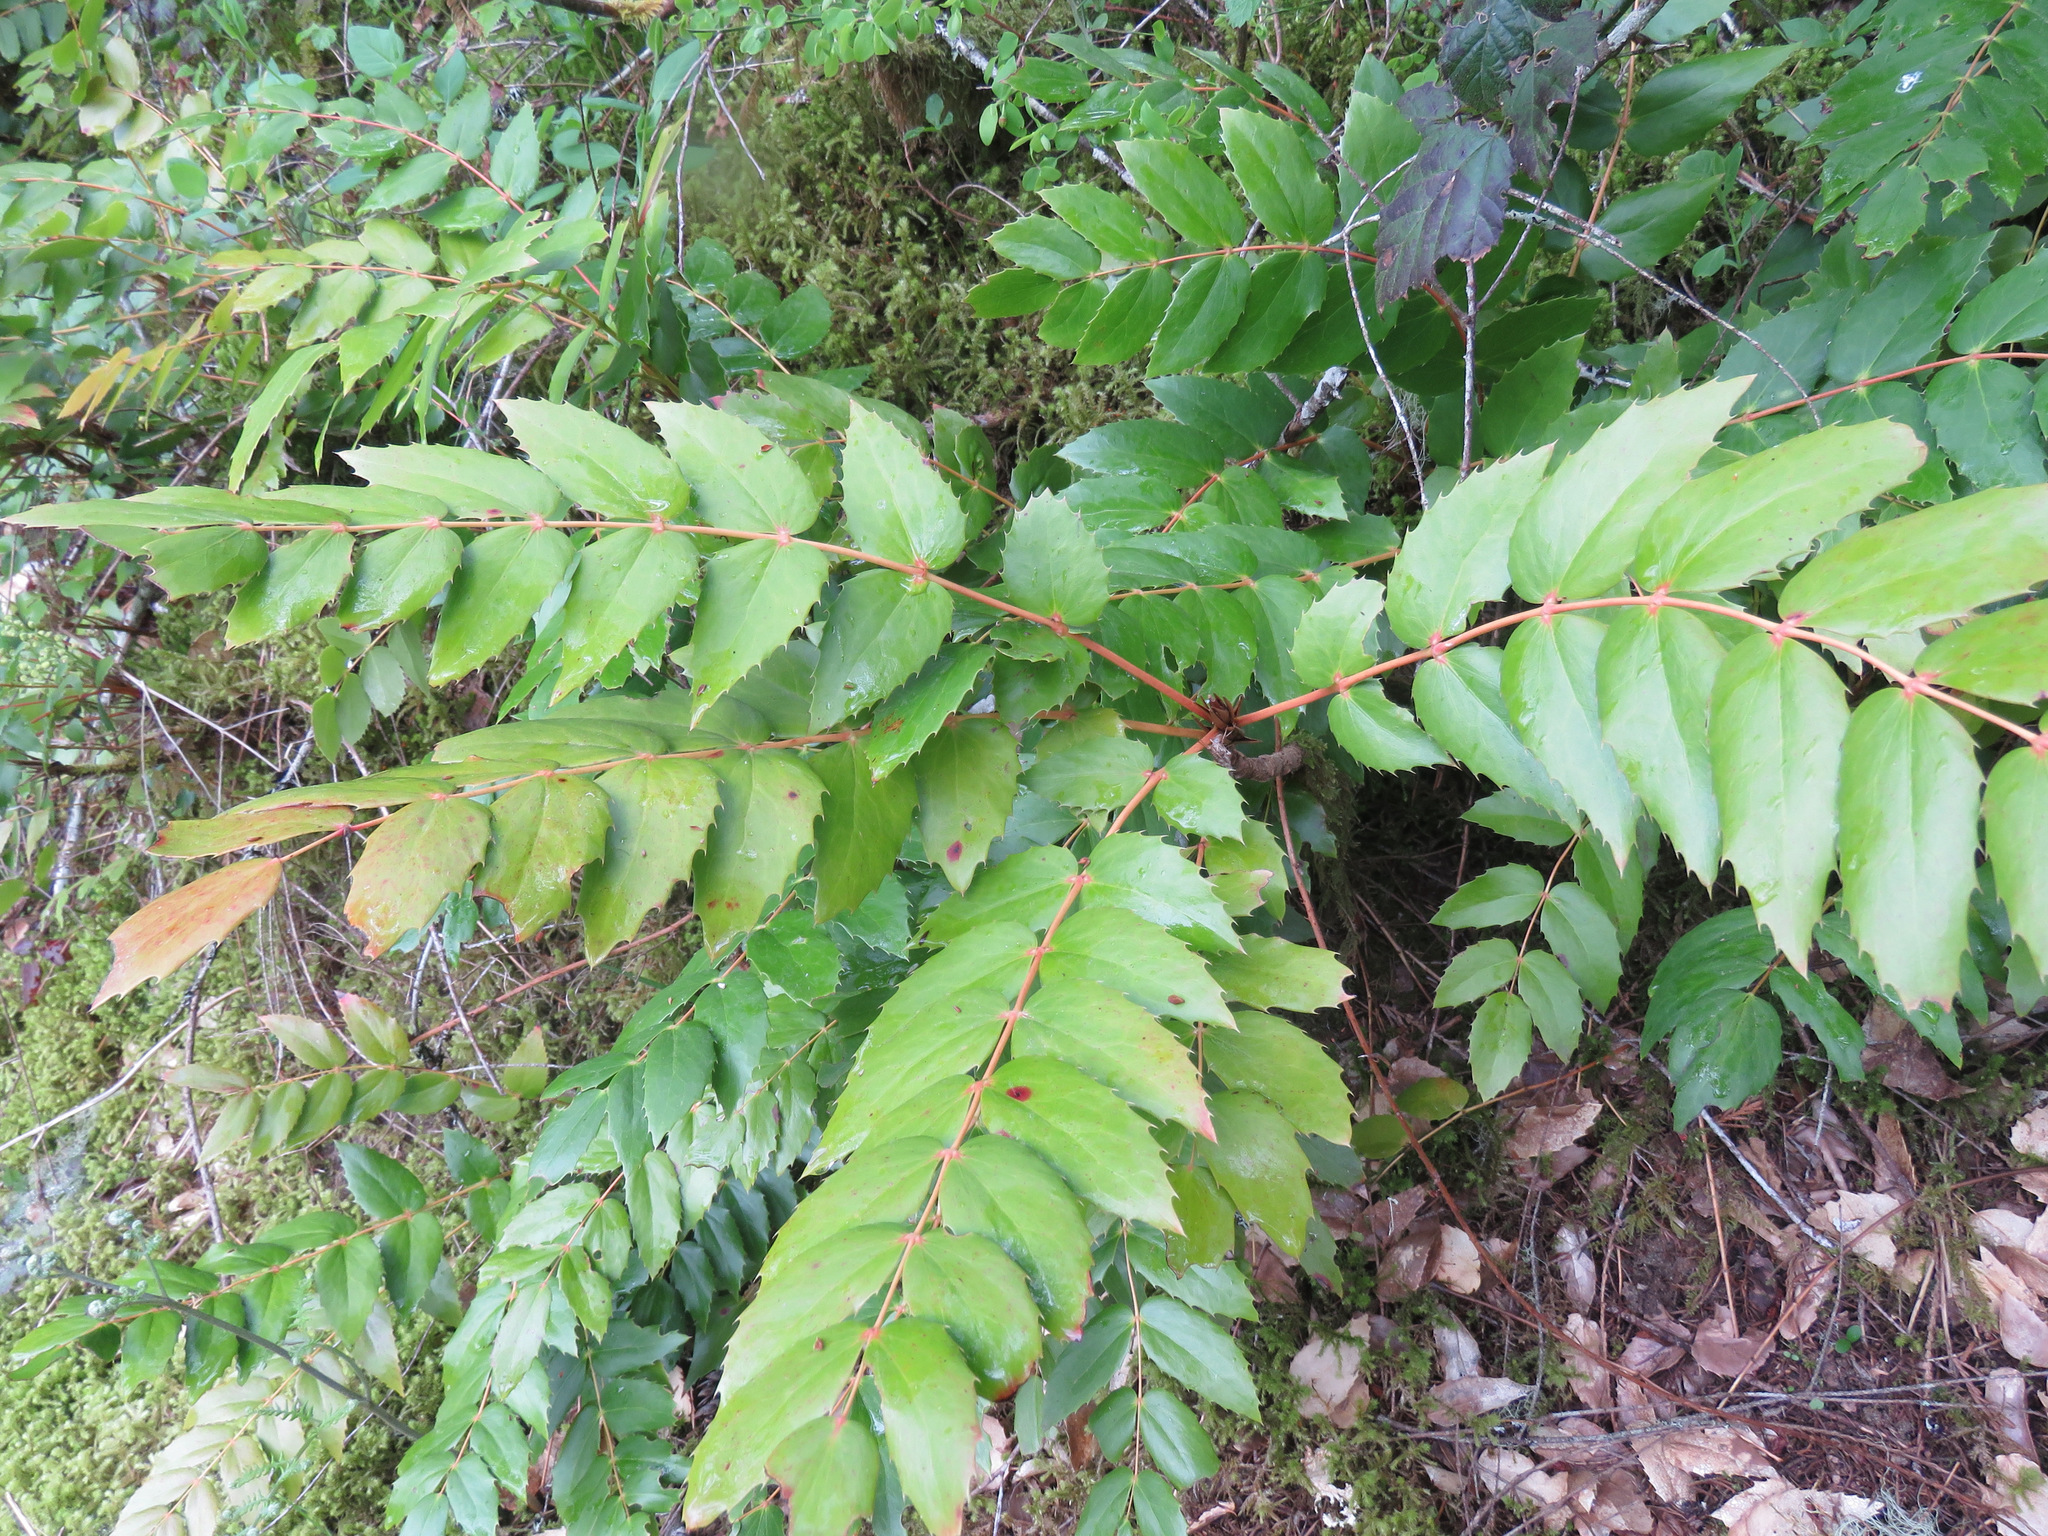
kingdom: Plantae
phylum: Tracheophyta
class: Magnoliopsida
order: Ranunculales
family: Berberidaceae
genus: Mahonia
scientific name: Mahonia nervosa
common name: Cascade oregon-grape
